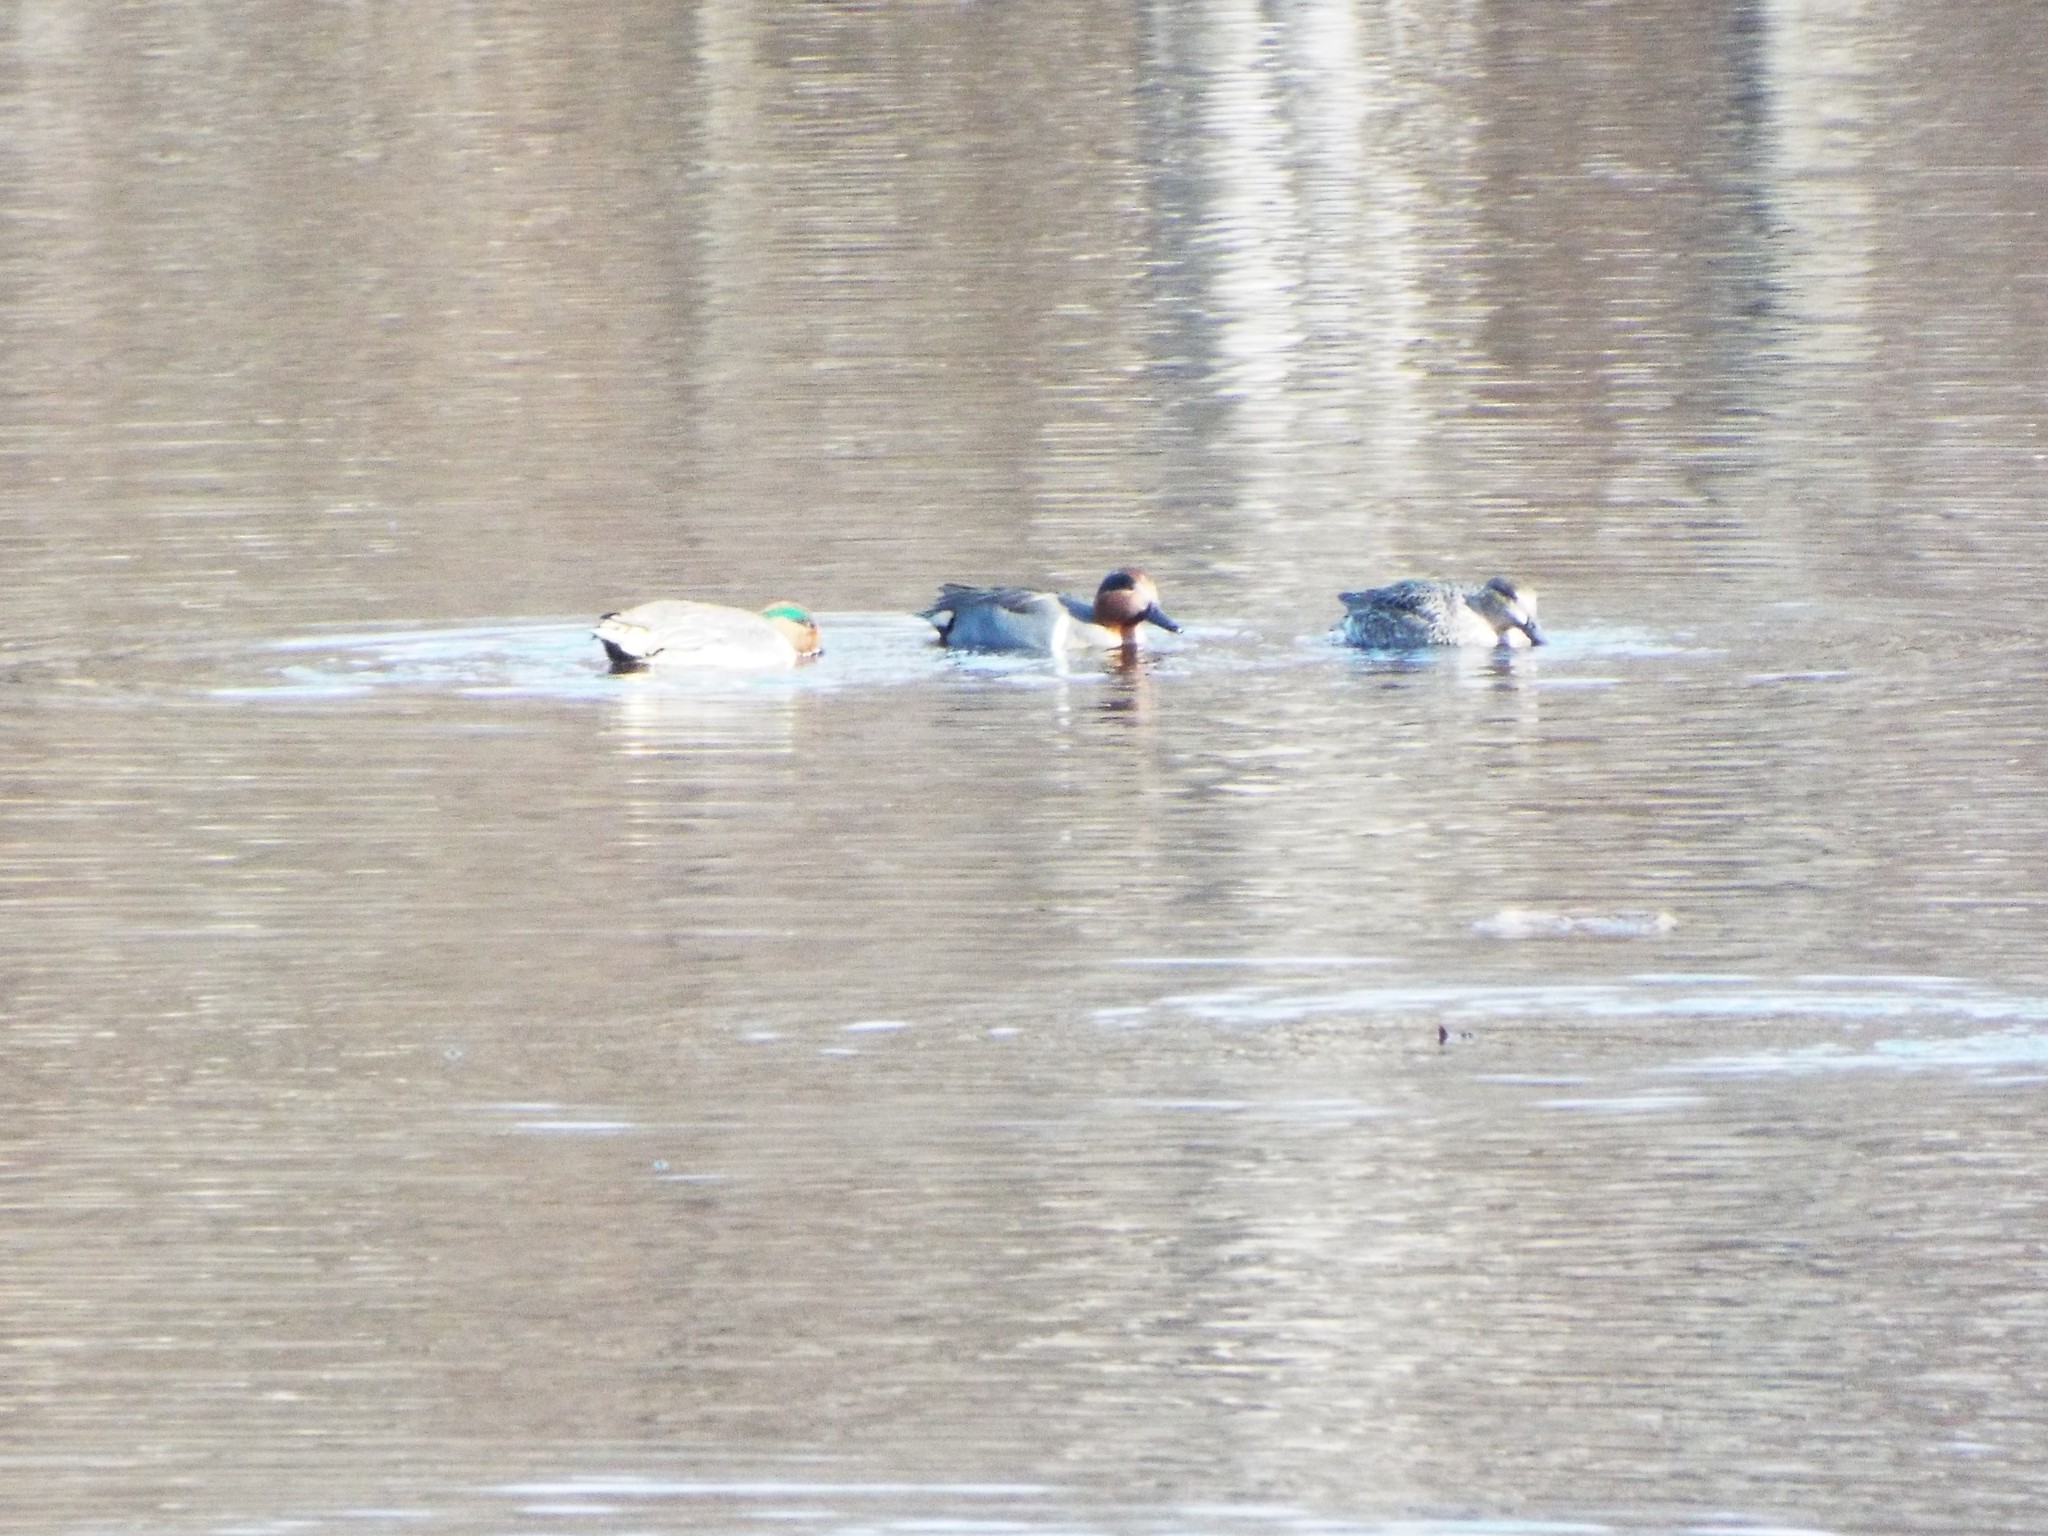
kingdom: Animalia
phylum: Chordata
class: Aves
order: Anseriformes
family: Anatidae
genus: Anas
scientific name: Anas carolinensis
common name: Green-winged teal
